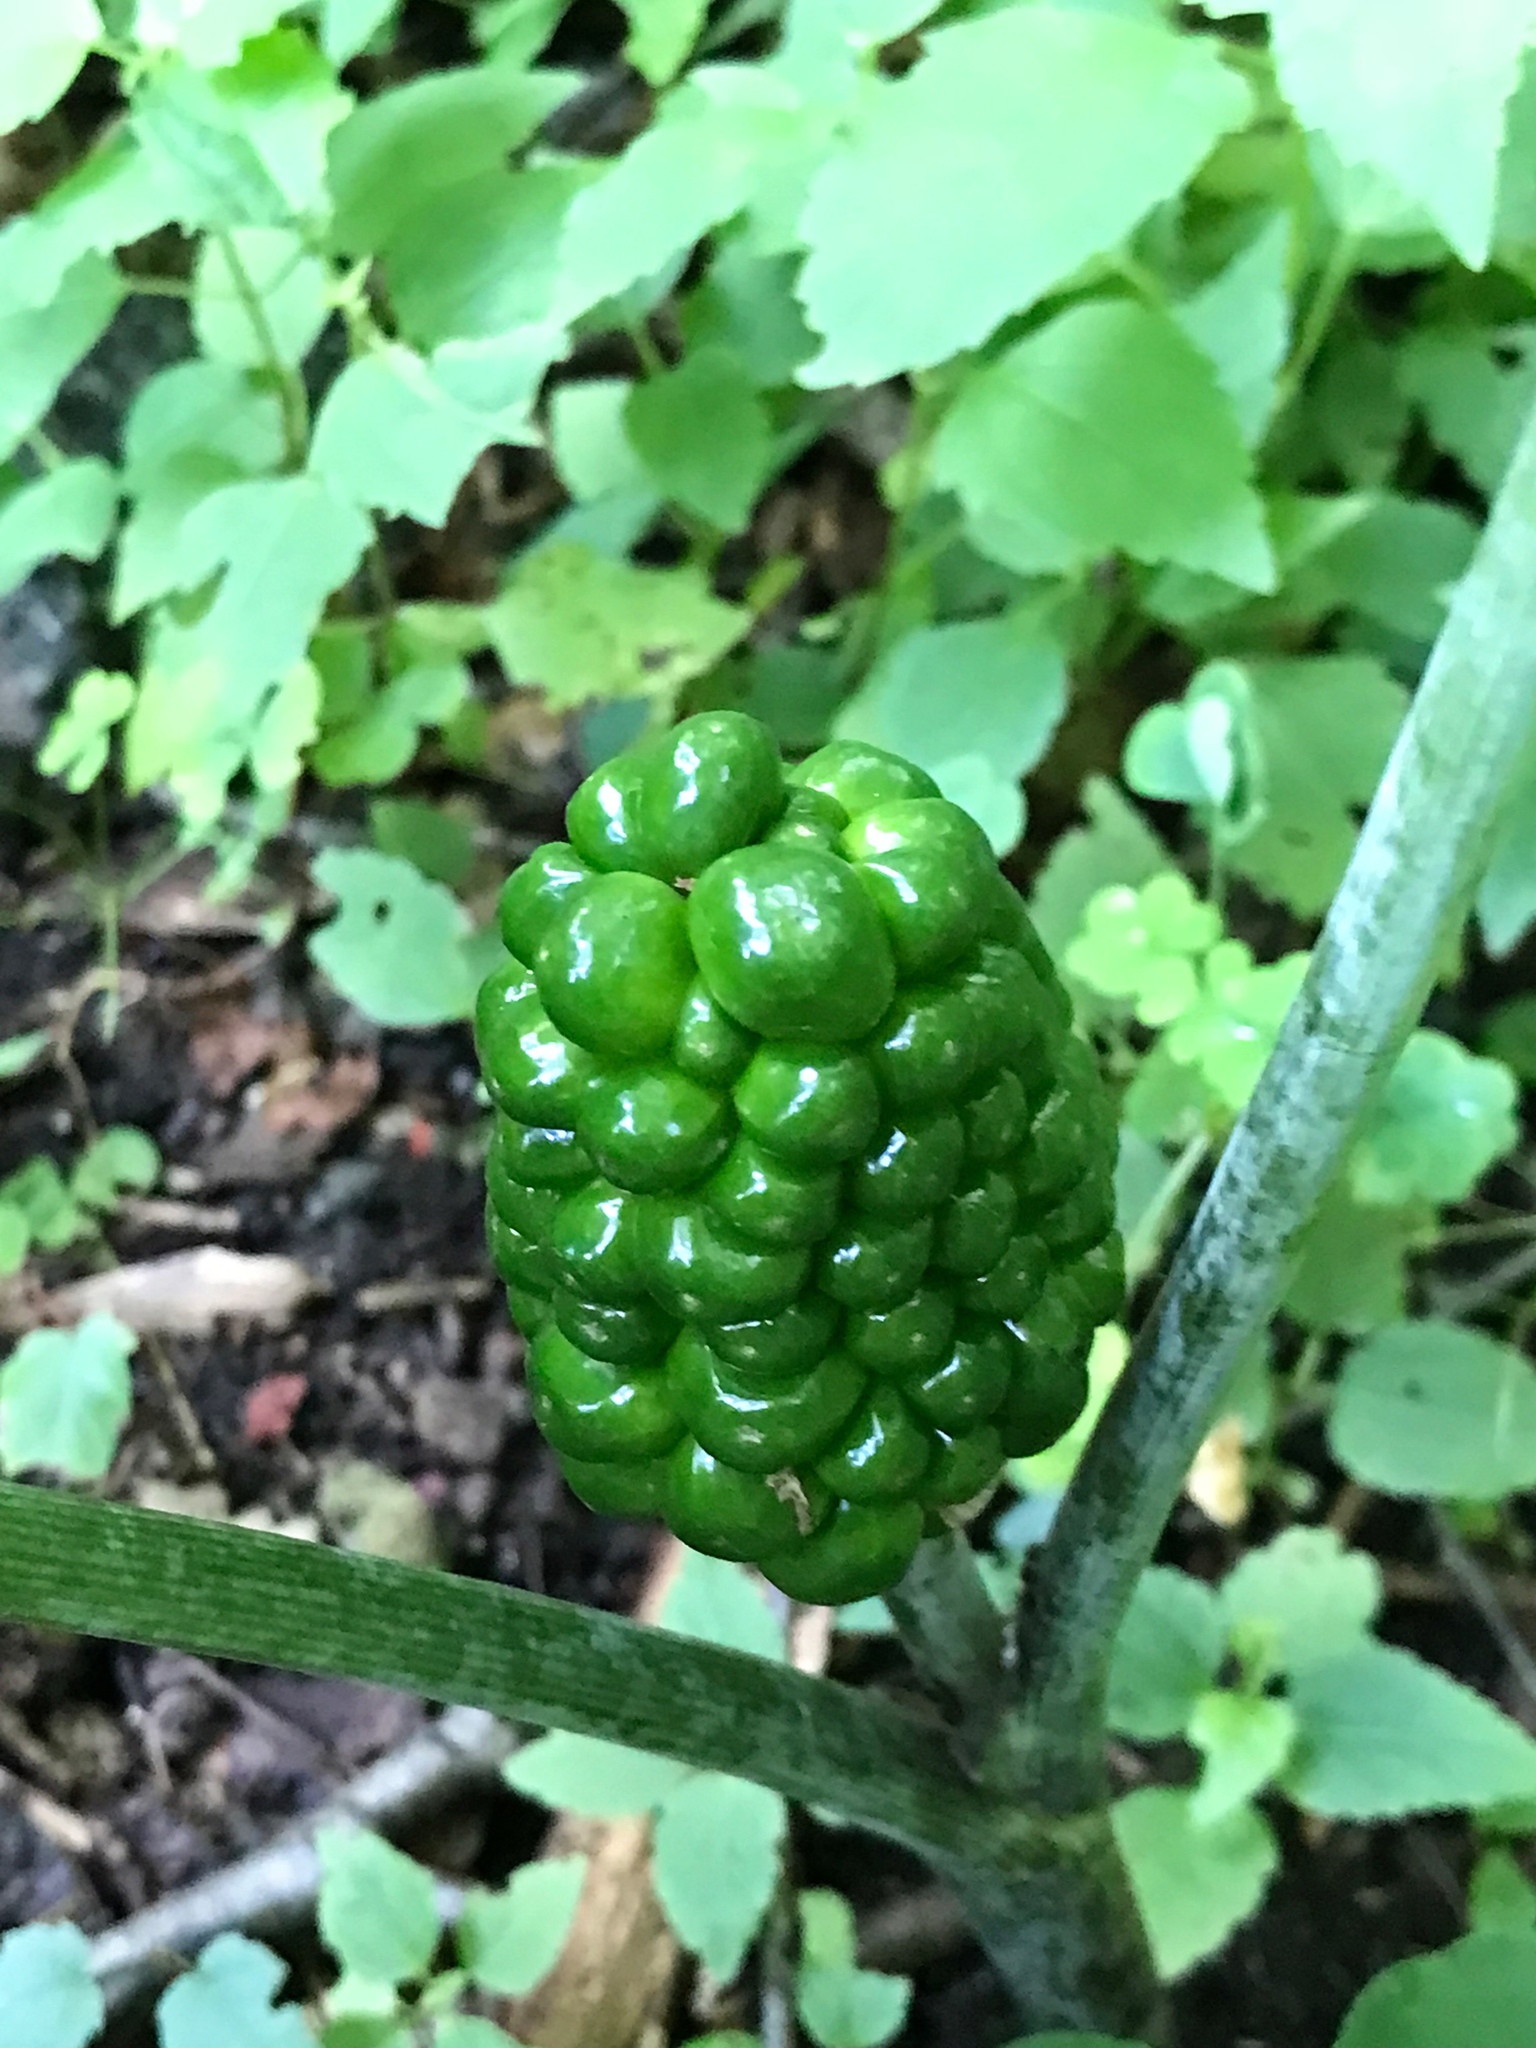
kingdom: Plantae
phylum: Tracheophyta
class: Liliopsida
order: Alismatales
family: Araceae
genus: Arisaema
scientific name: Arisaema triphyllum
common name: Jack-in-the-pulpit
